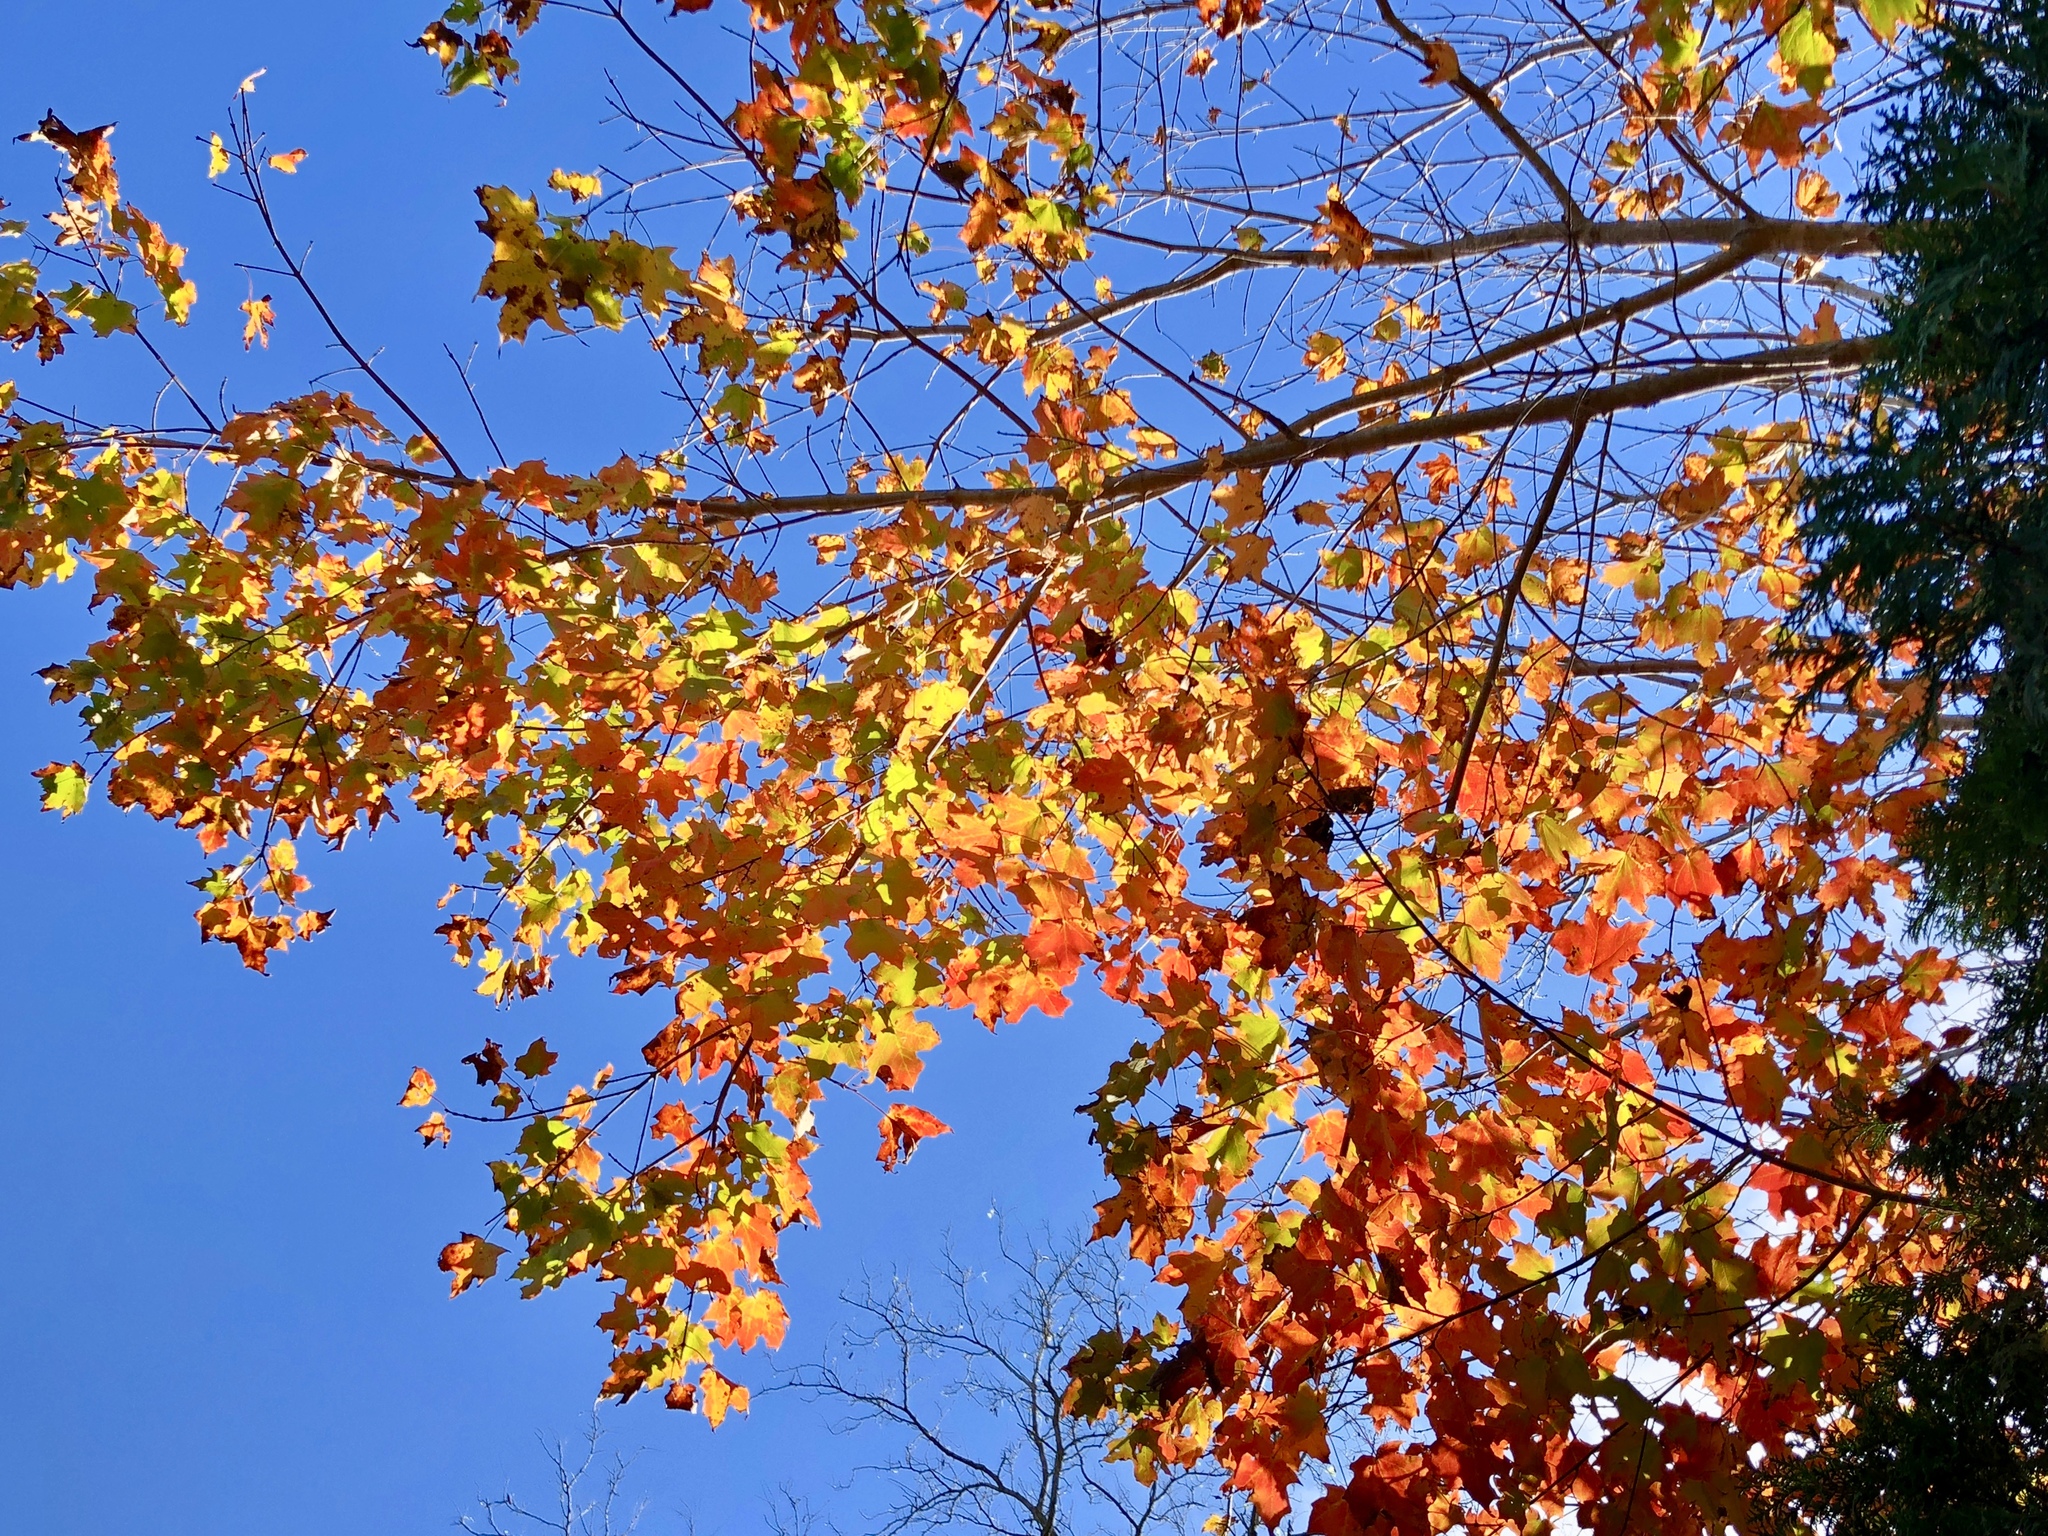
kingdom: Plantae
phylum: Tracheophyta
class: Magnoliopsida
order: Sapindales
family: Sapindaceae
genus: Acer
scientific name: Acer saccharum
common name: Sugar maple
